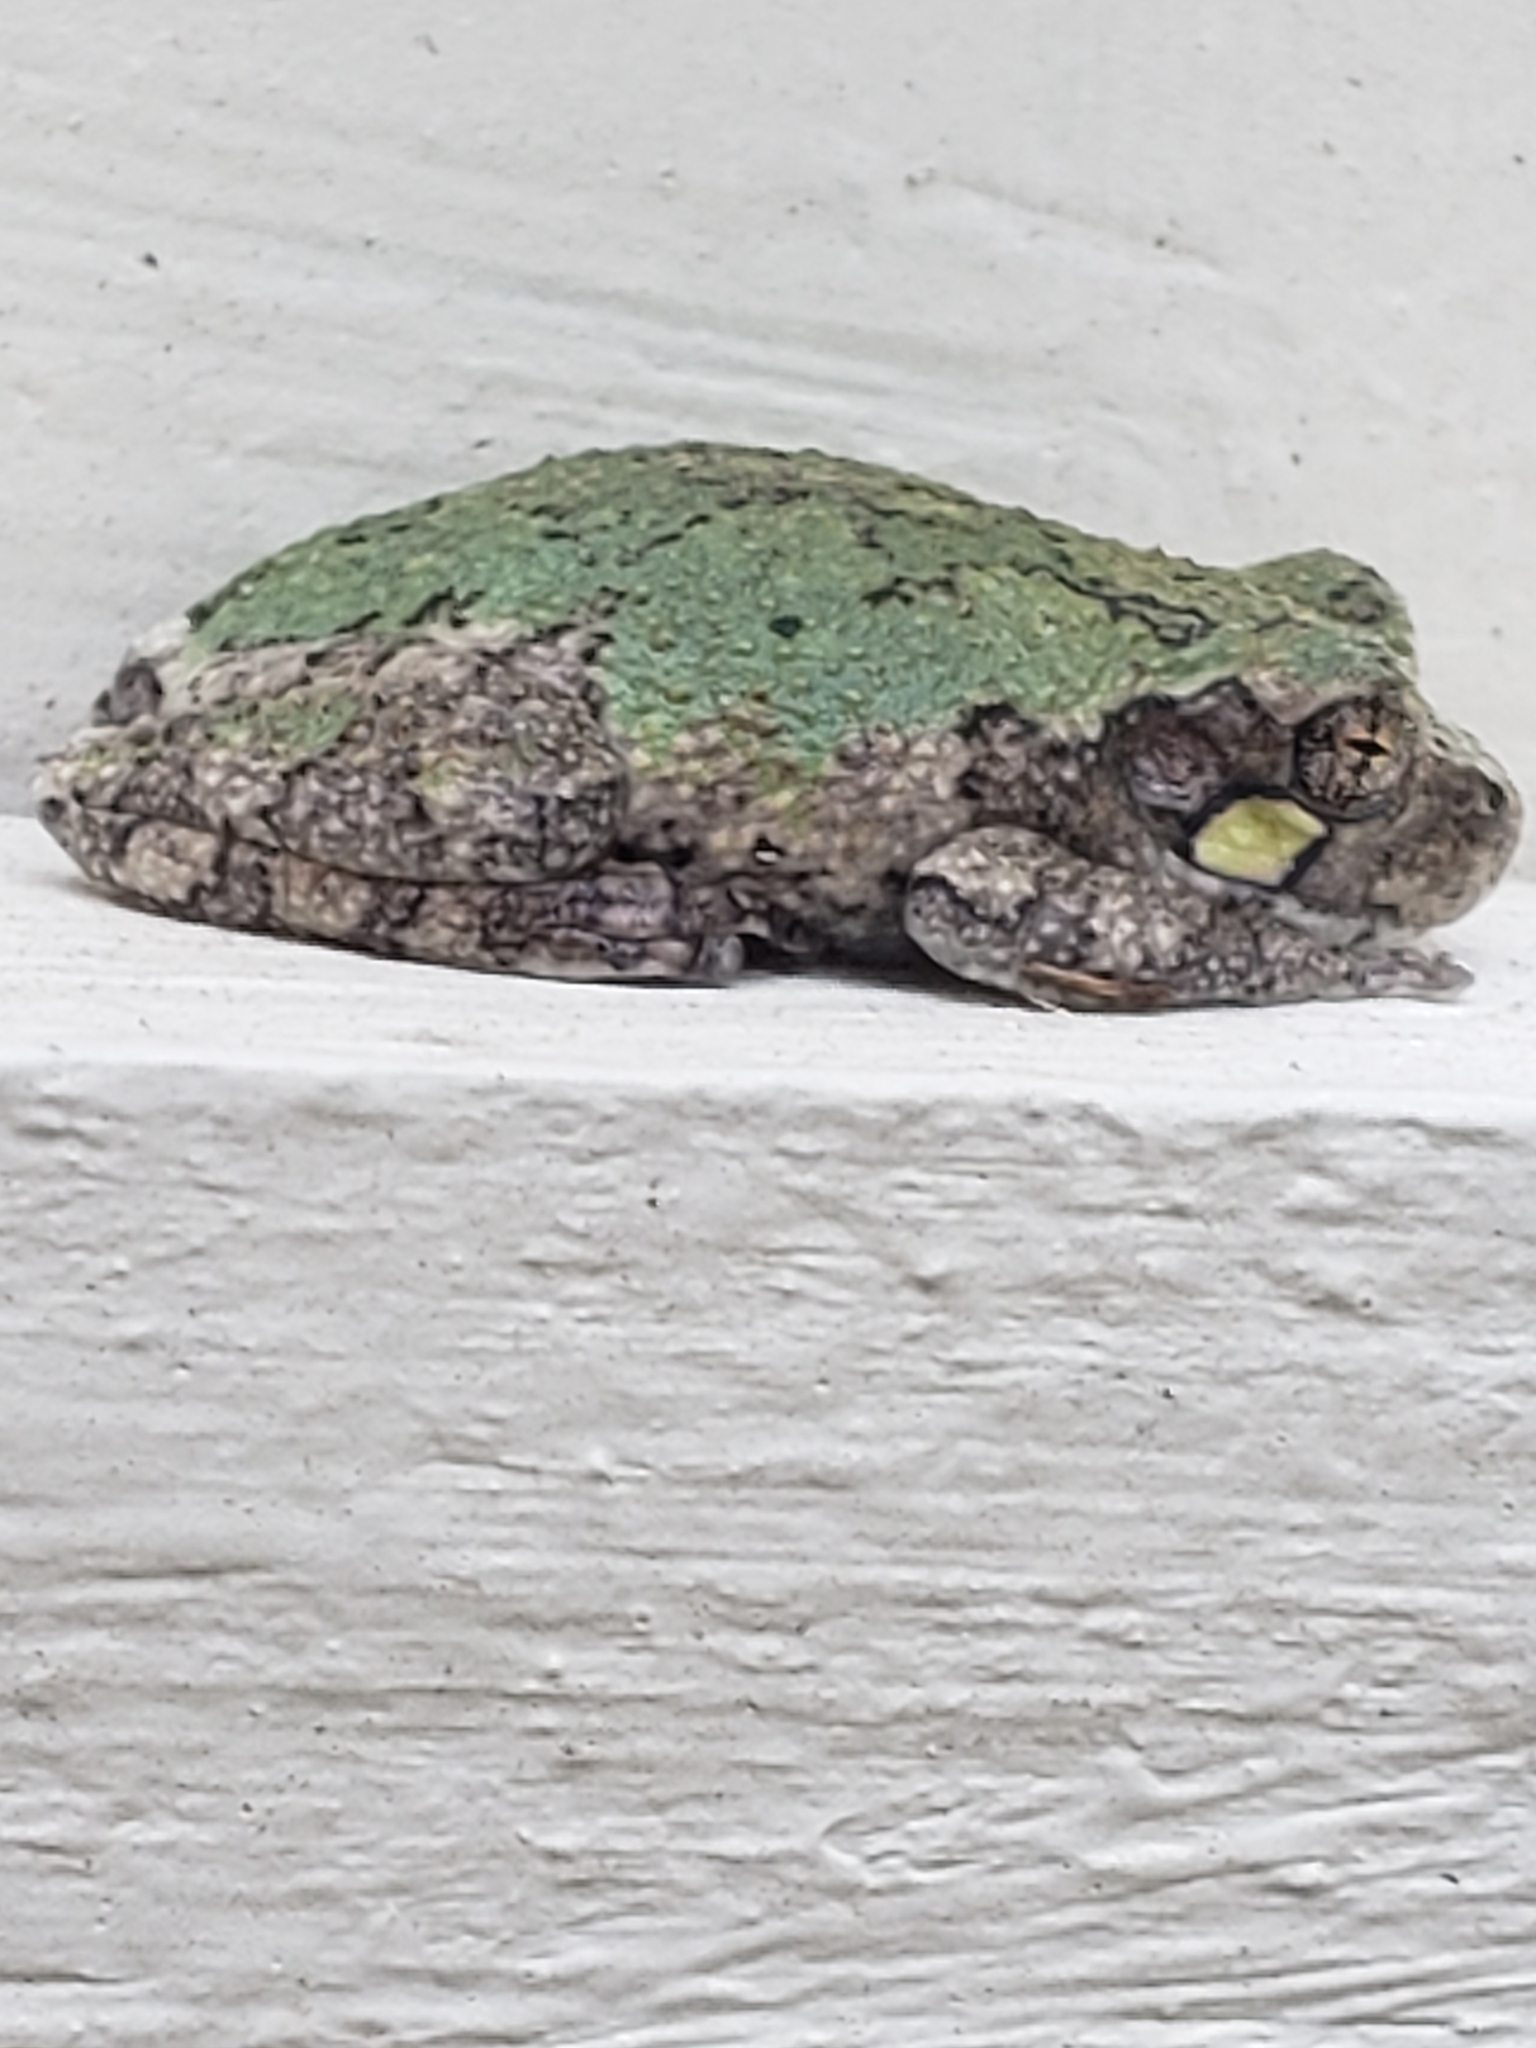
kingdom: Animalia
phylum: Chordata
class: Amphibia
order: Anura
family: Hylidae
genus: Hyla
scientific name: Hyla
